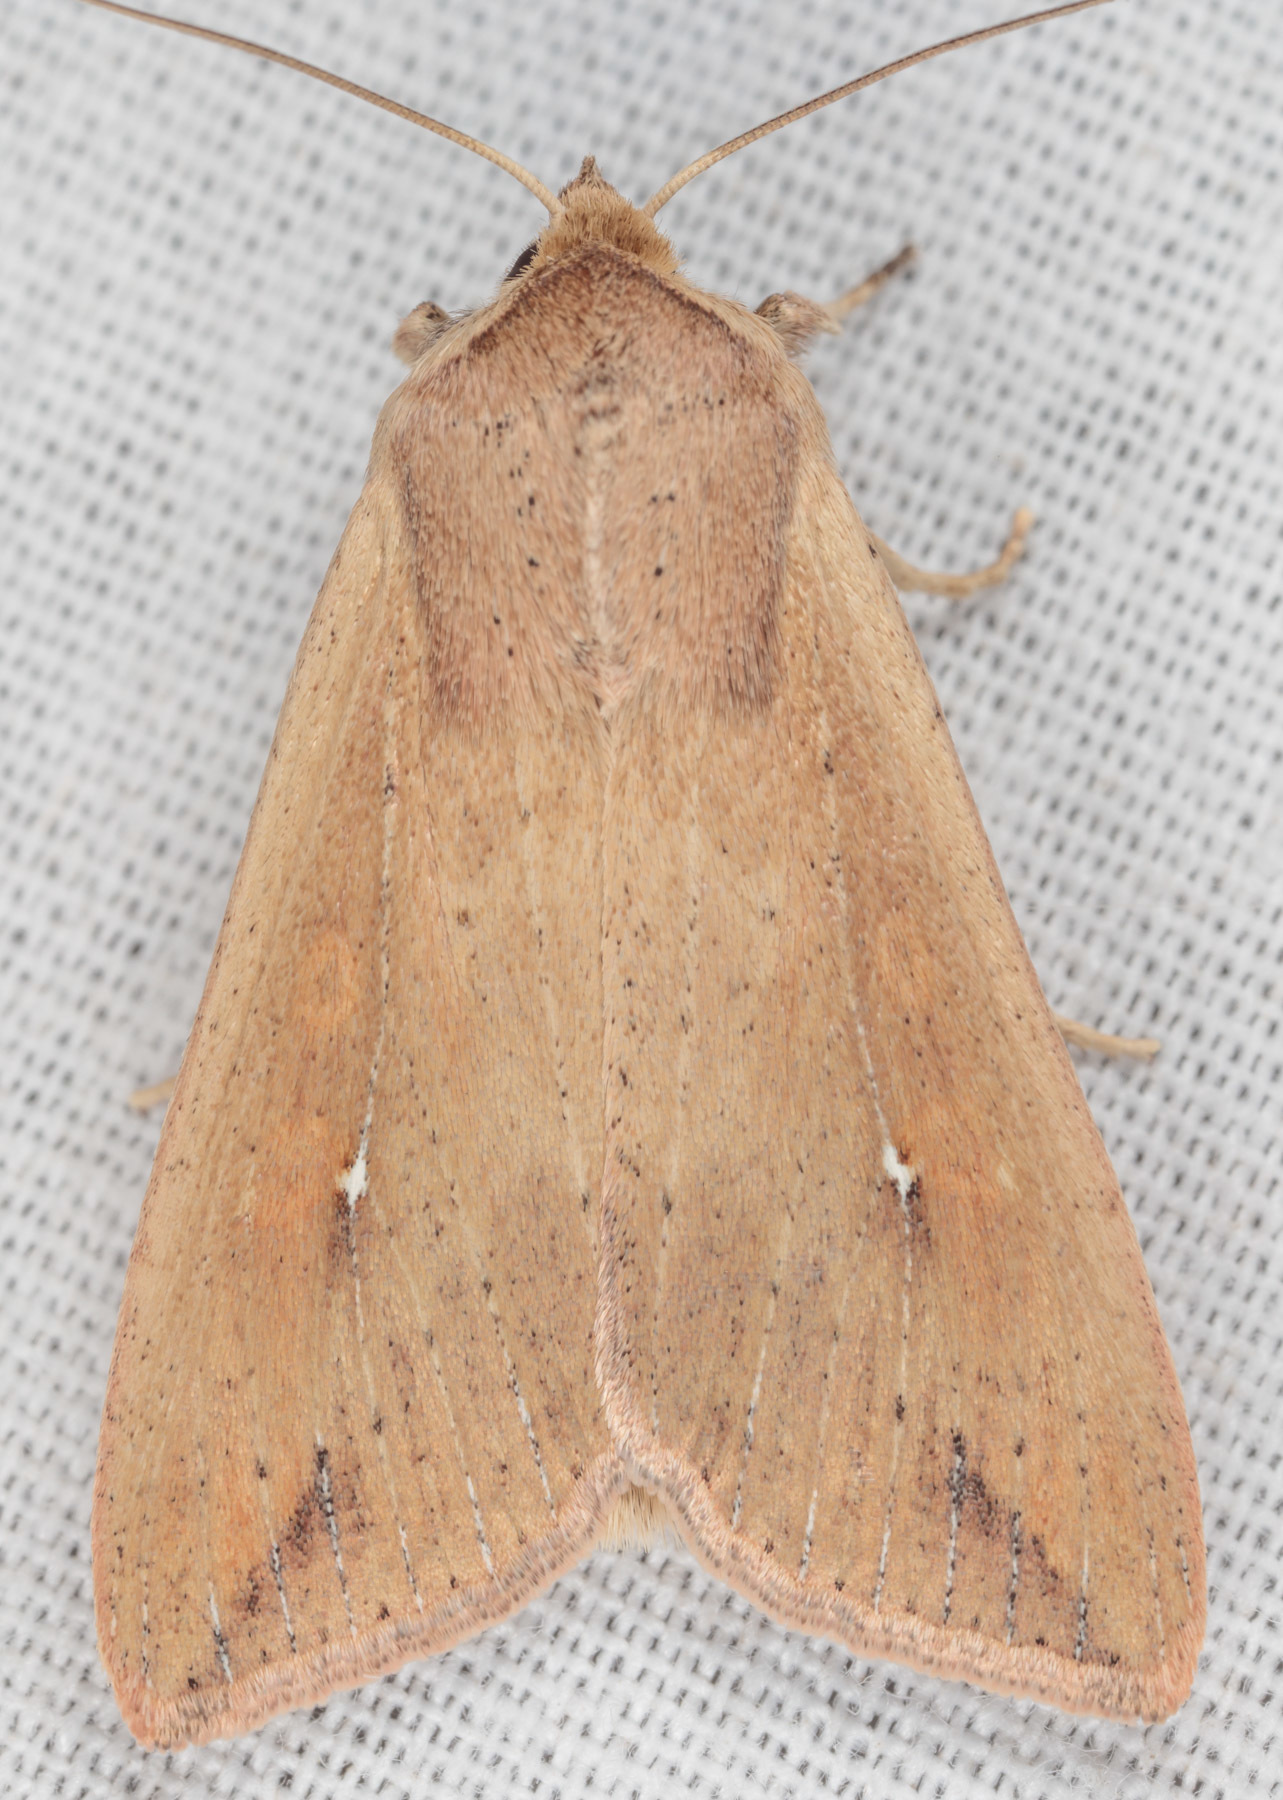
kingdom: Animalia
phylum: Arthropoda
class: Insecta
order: Lepidoptera
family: Noctuidae
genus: Mythimna
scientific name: Mythimna unipuncta
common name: White-speck
